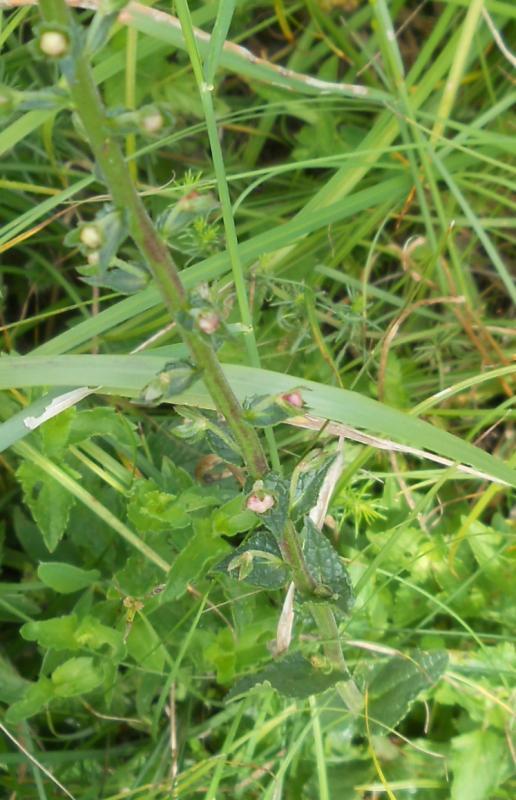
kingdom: Plantae
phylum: Tracheophyta
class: Magnoliopsida
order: Lamiales
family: Scrophulariaceae
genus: Verbascum
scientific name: Verbascum phoeniceum
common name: Purple mullein
